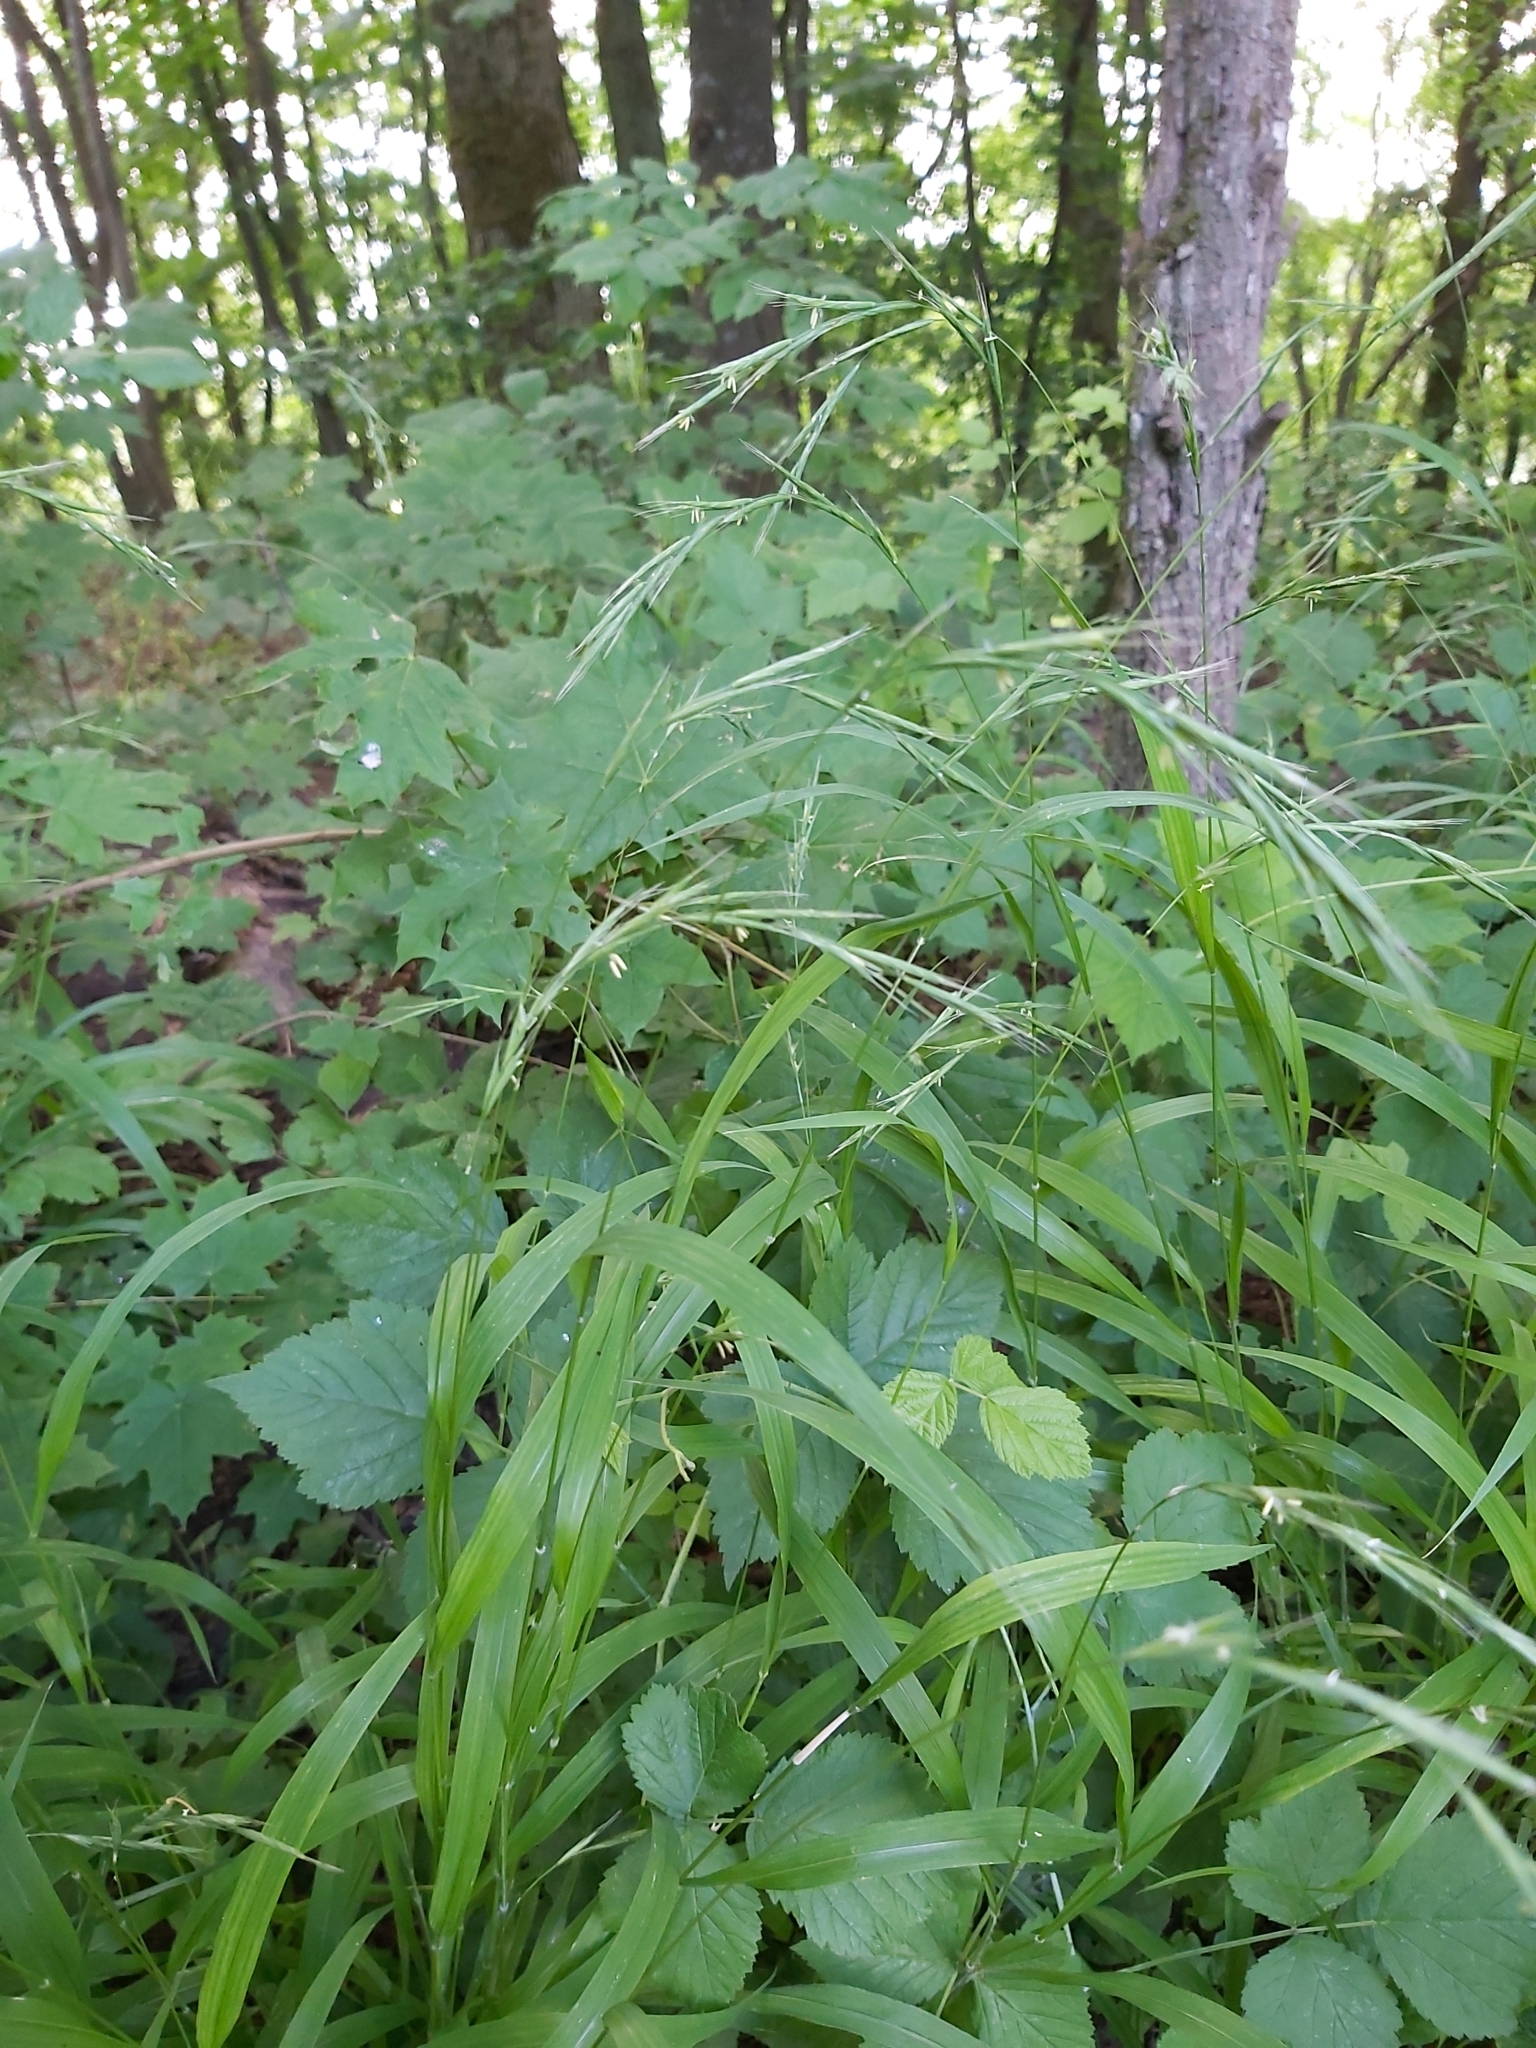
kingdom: Plantae
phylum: Tracheophyta
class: Liliopsida
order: Poales
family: Poaceae
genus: Brachypodium
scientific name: Brachypodium sylvaticum
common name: False-brome
